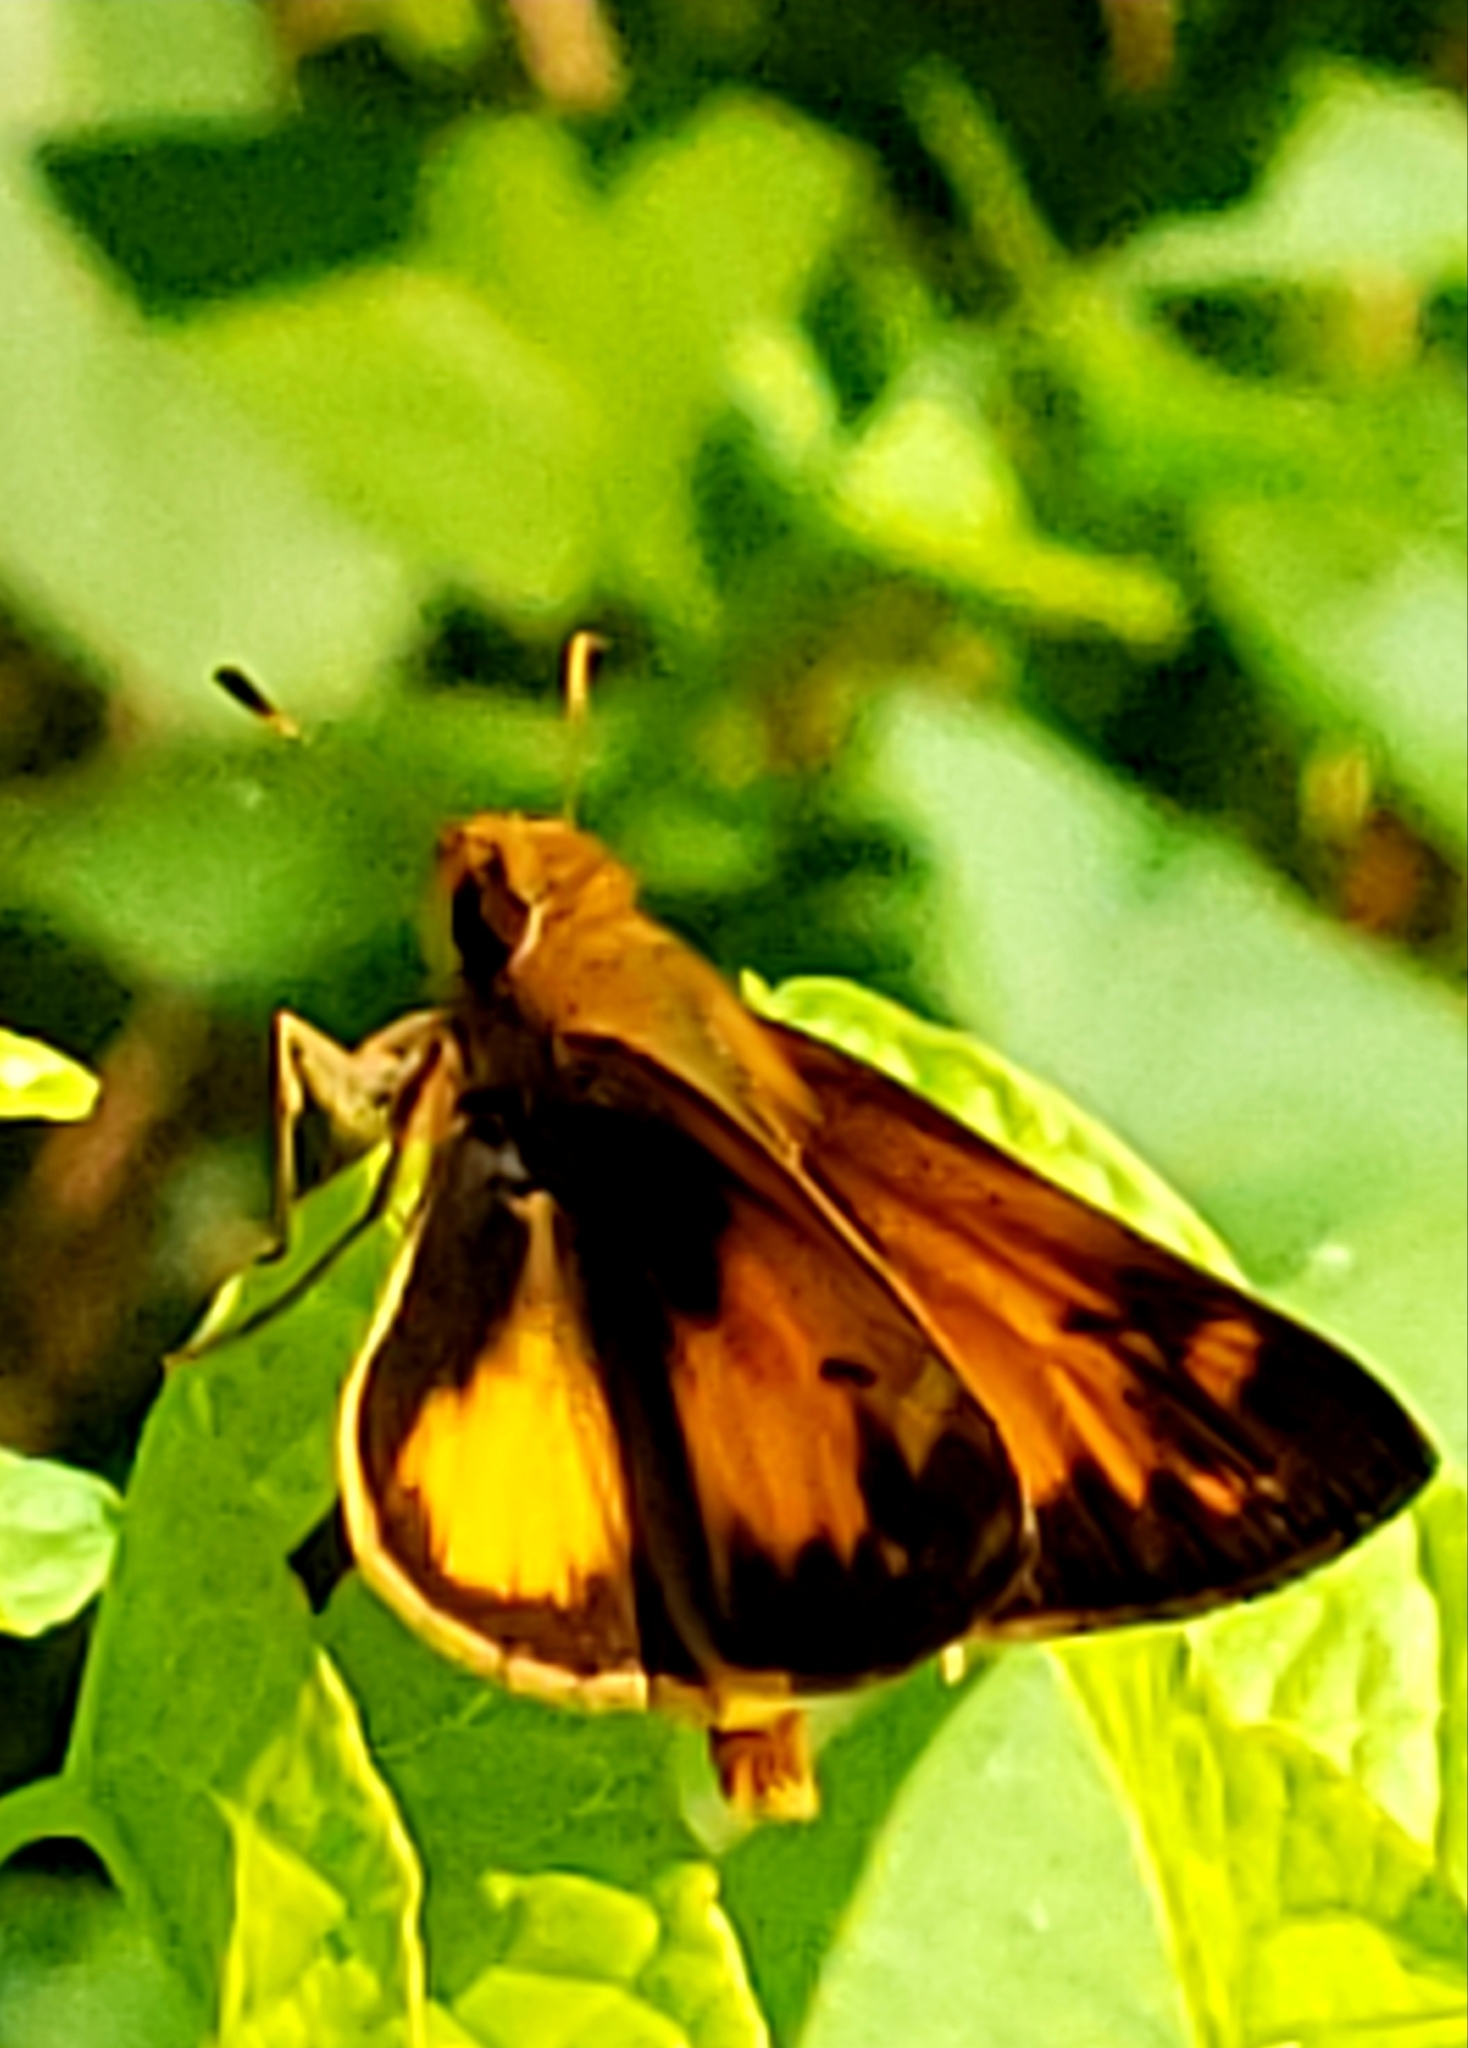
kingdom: Animalia
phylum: Arthropoda
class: Insecta
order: Lepidoptera
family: Hesperiidae
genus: Lon
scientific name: Lon zabulon
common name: Zabulon skipper
